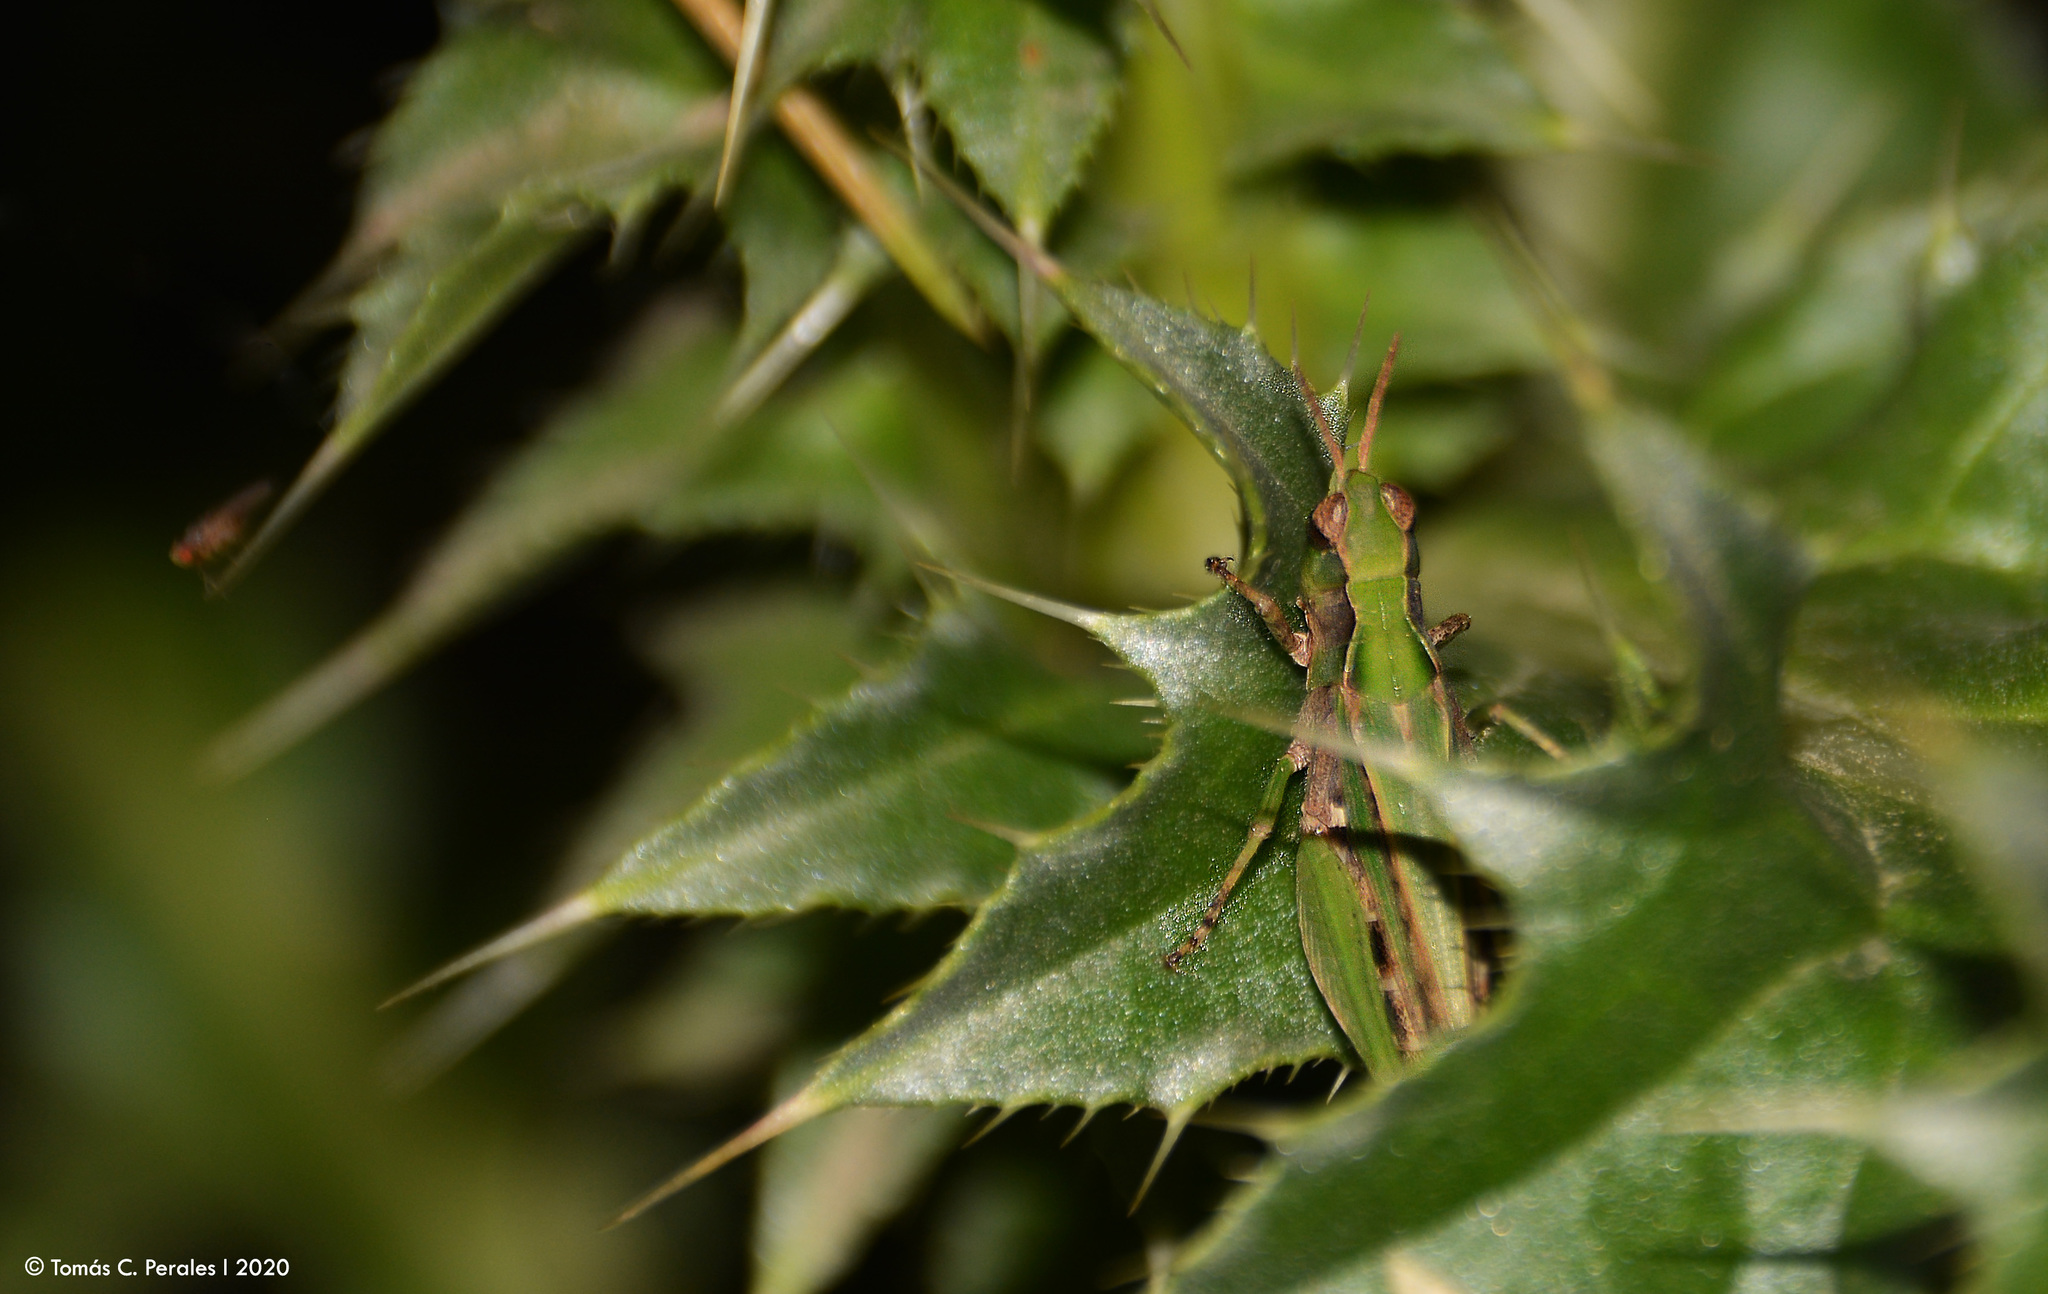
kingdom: Animalia
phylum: Arthropoda
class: Insecta
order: Orthoptera
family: Acrididae
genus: Orphulella
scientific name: Orphulella punctata
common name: Slant-faced grasshopper
